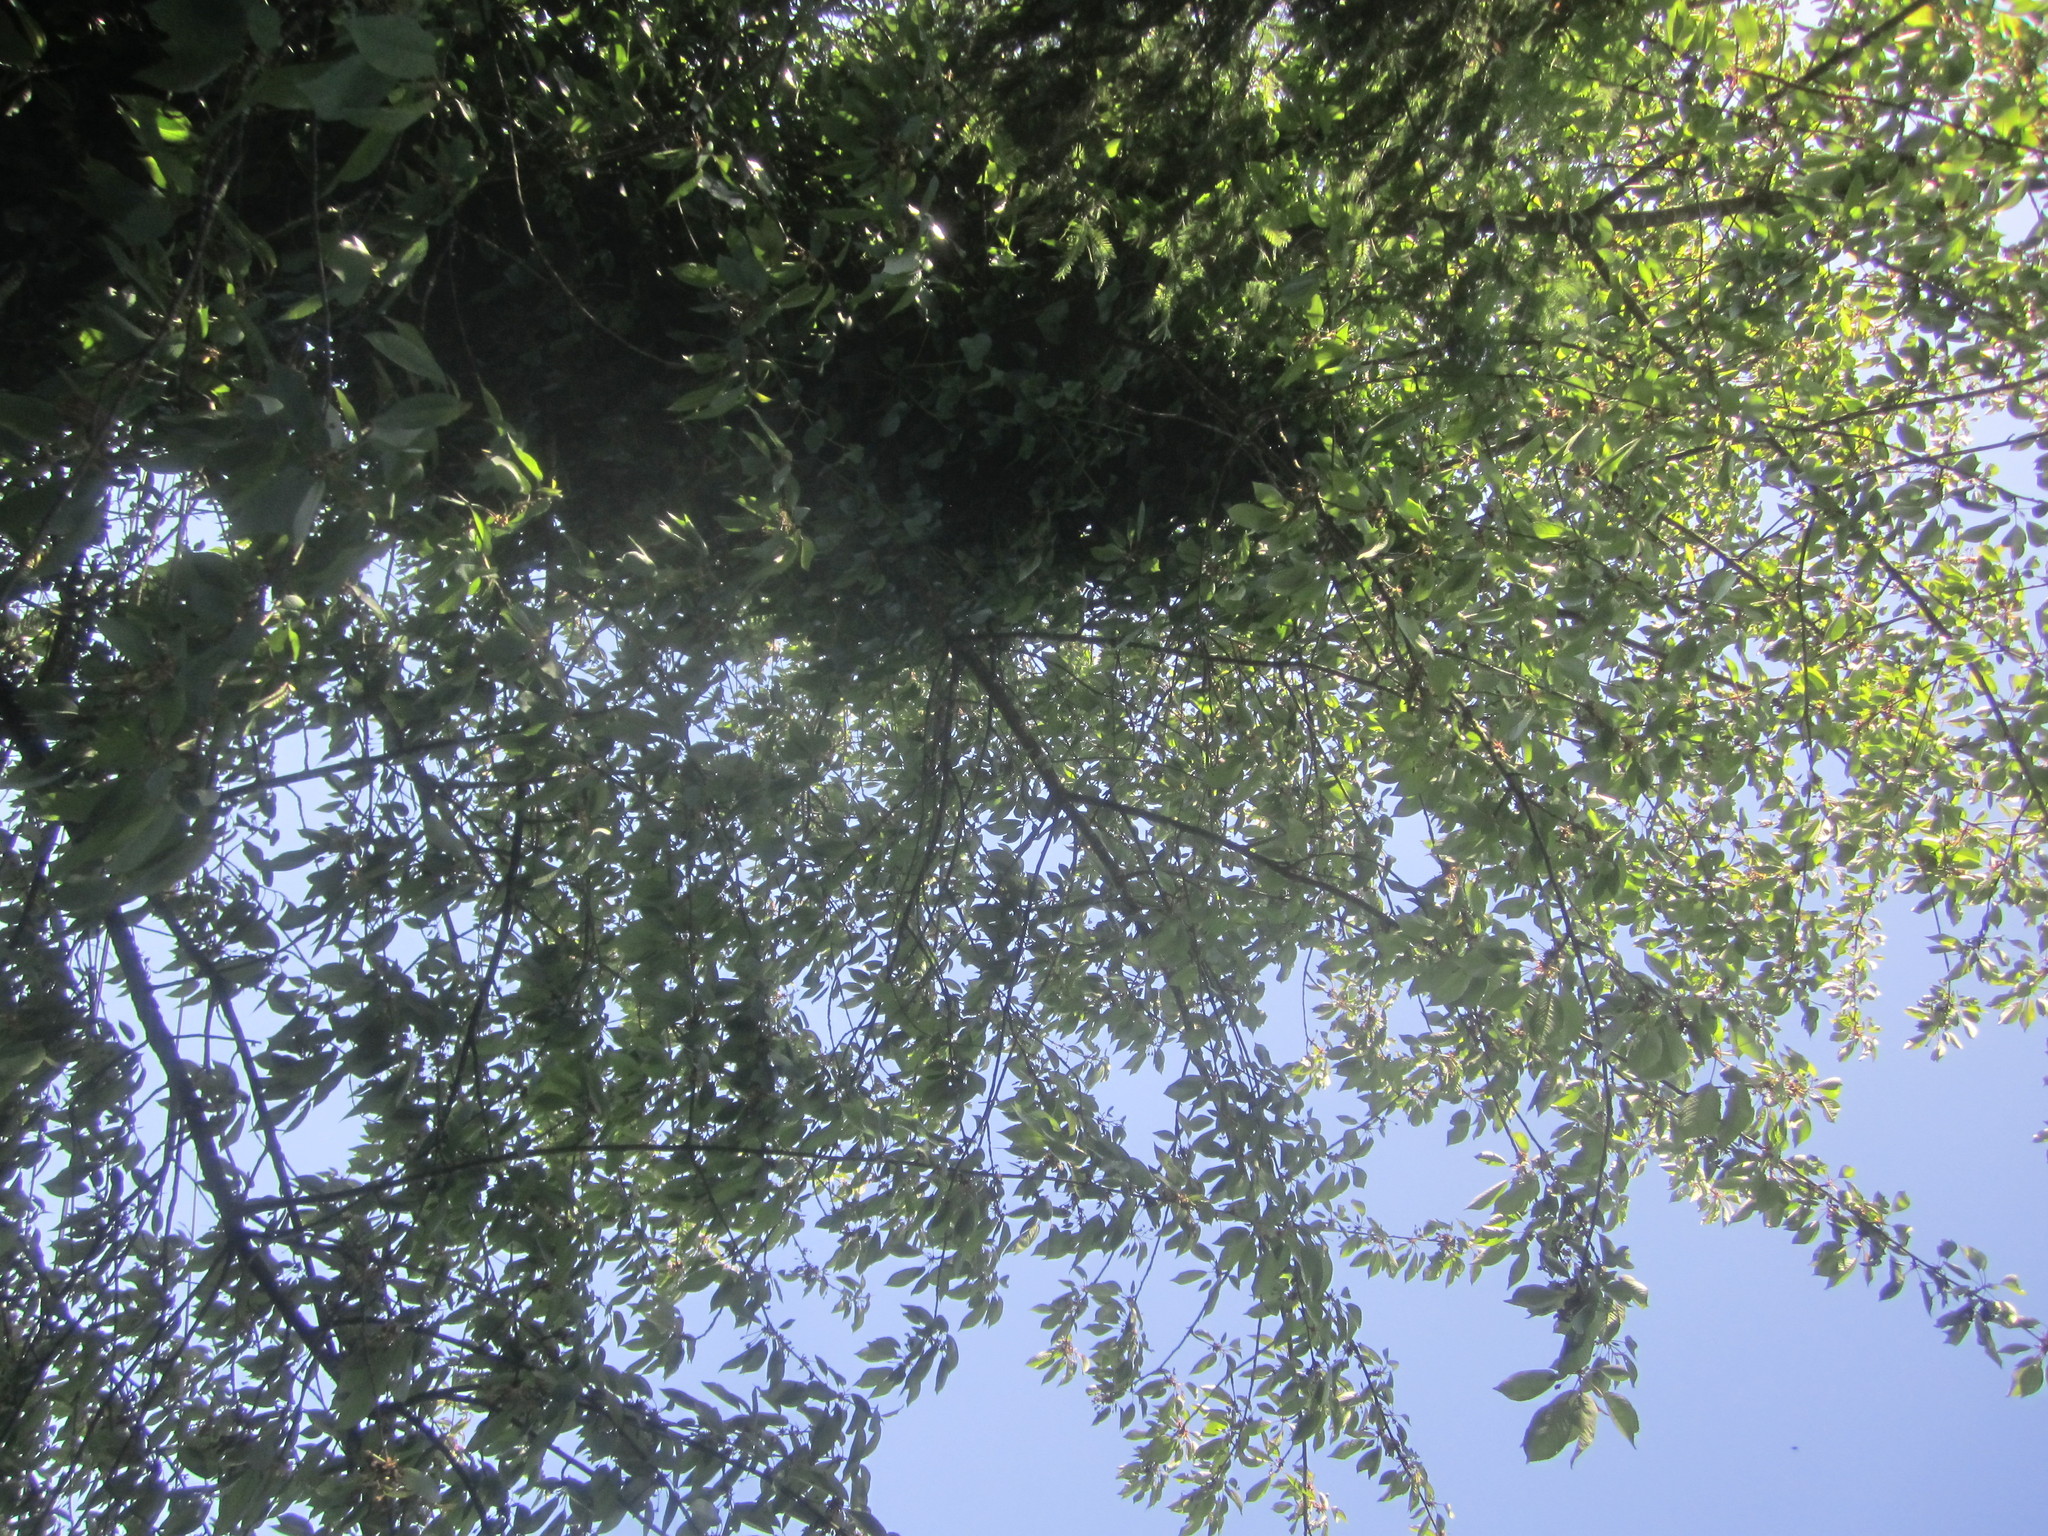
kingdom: Plantae
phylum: Tracheophyta
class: Magnoliopsida
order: Rosales
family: Rosaceae
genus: Prunus
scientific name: Prunus avium
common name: Sweet cherry
